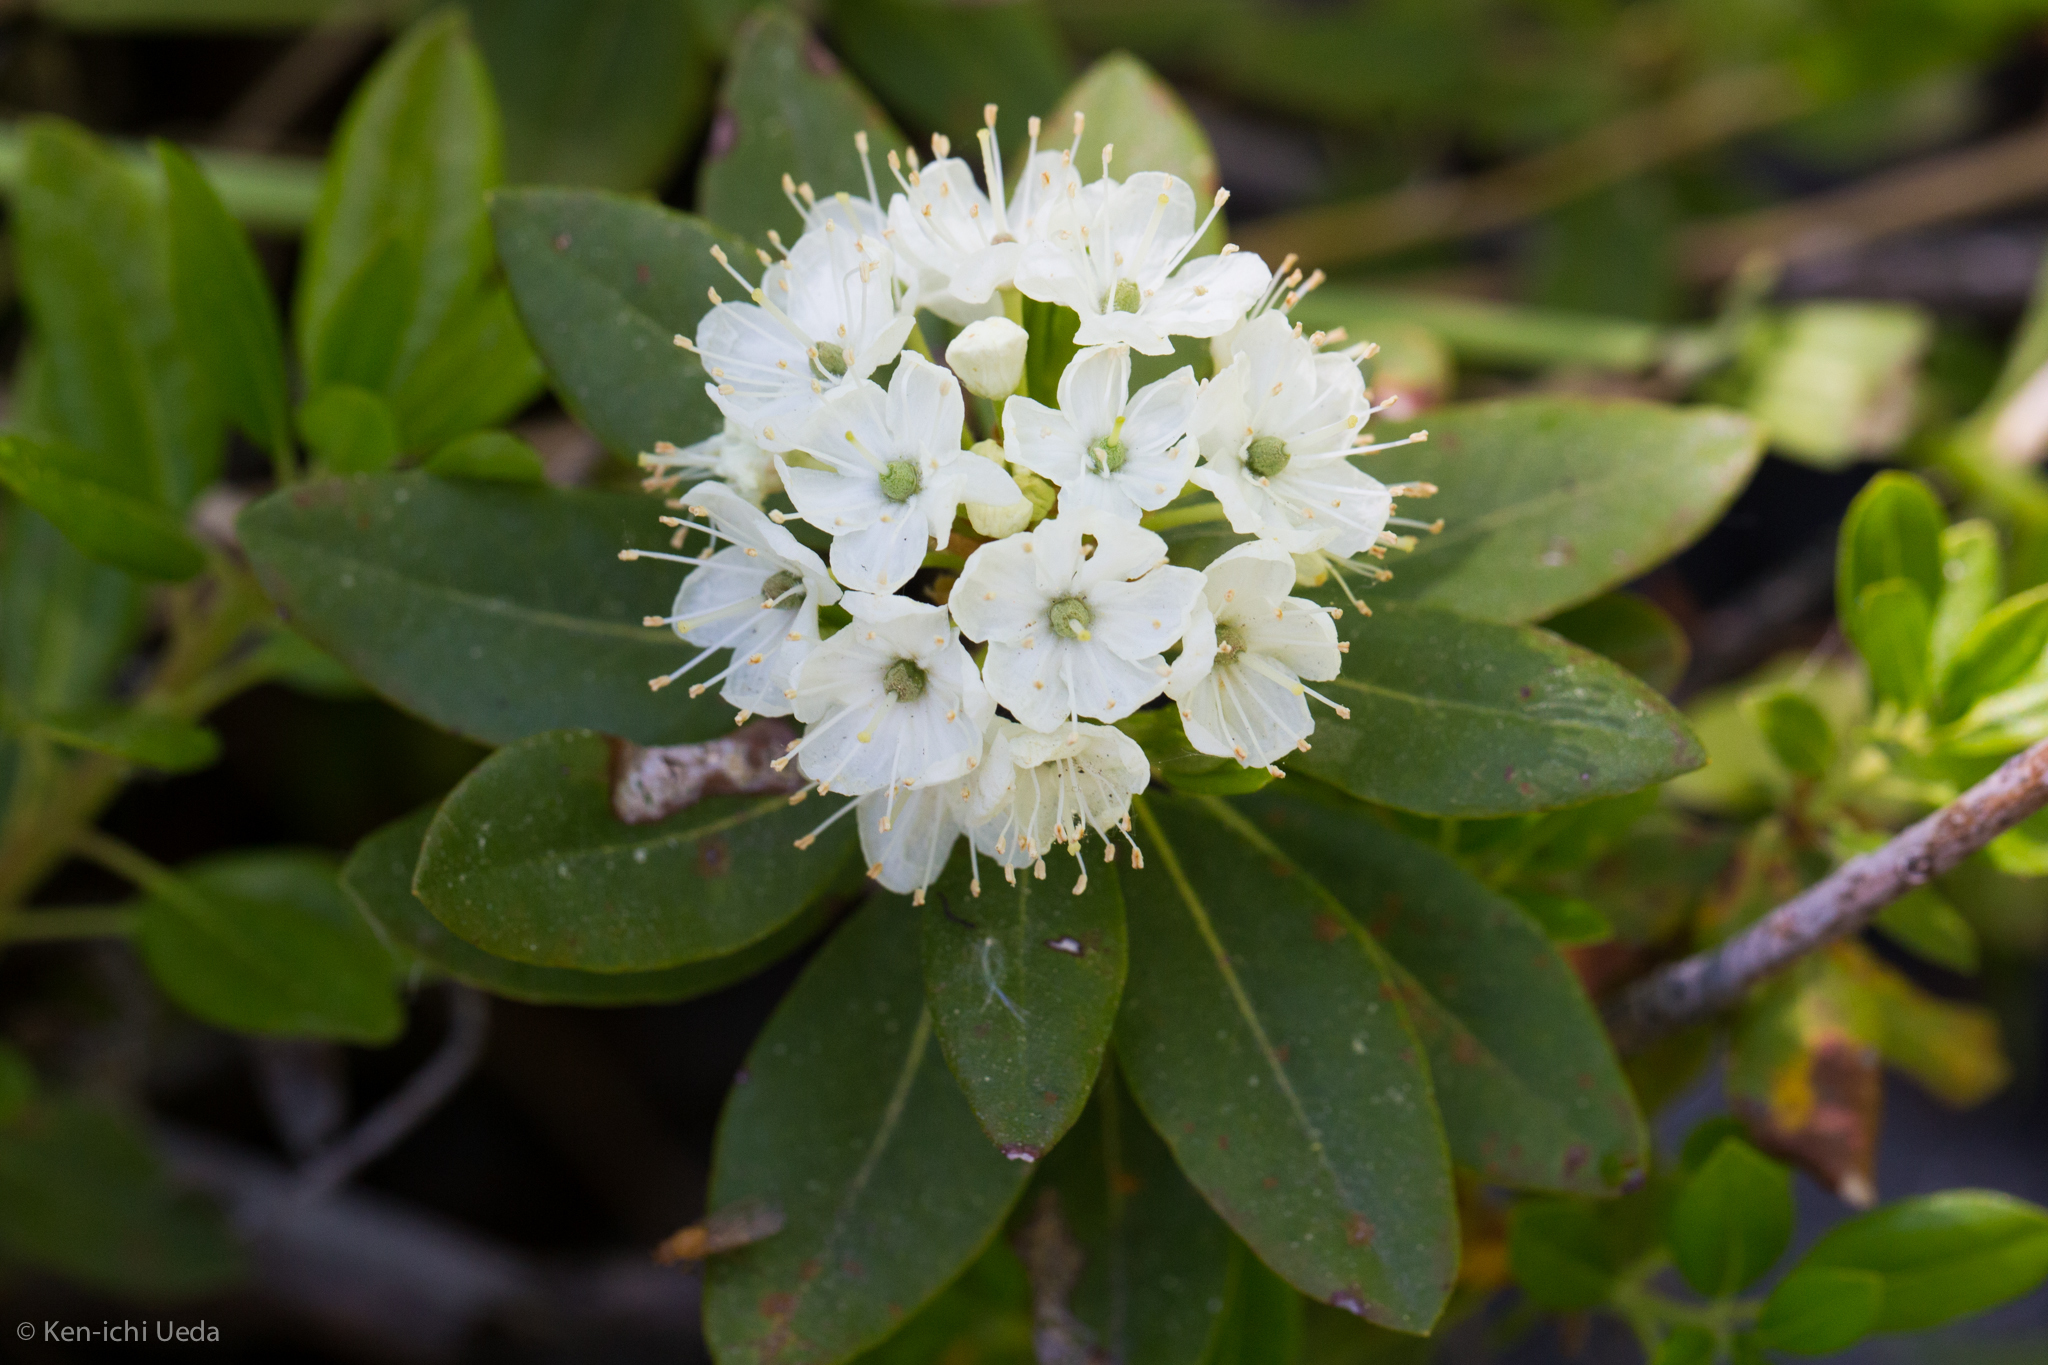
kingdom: Plantae
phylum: Tracheophyta
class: Magnoliopsida
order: Ericales
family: Ericaceae
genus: Rhododendron
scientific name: Rhododendron columbianum
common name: Western labrador tea
